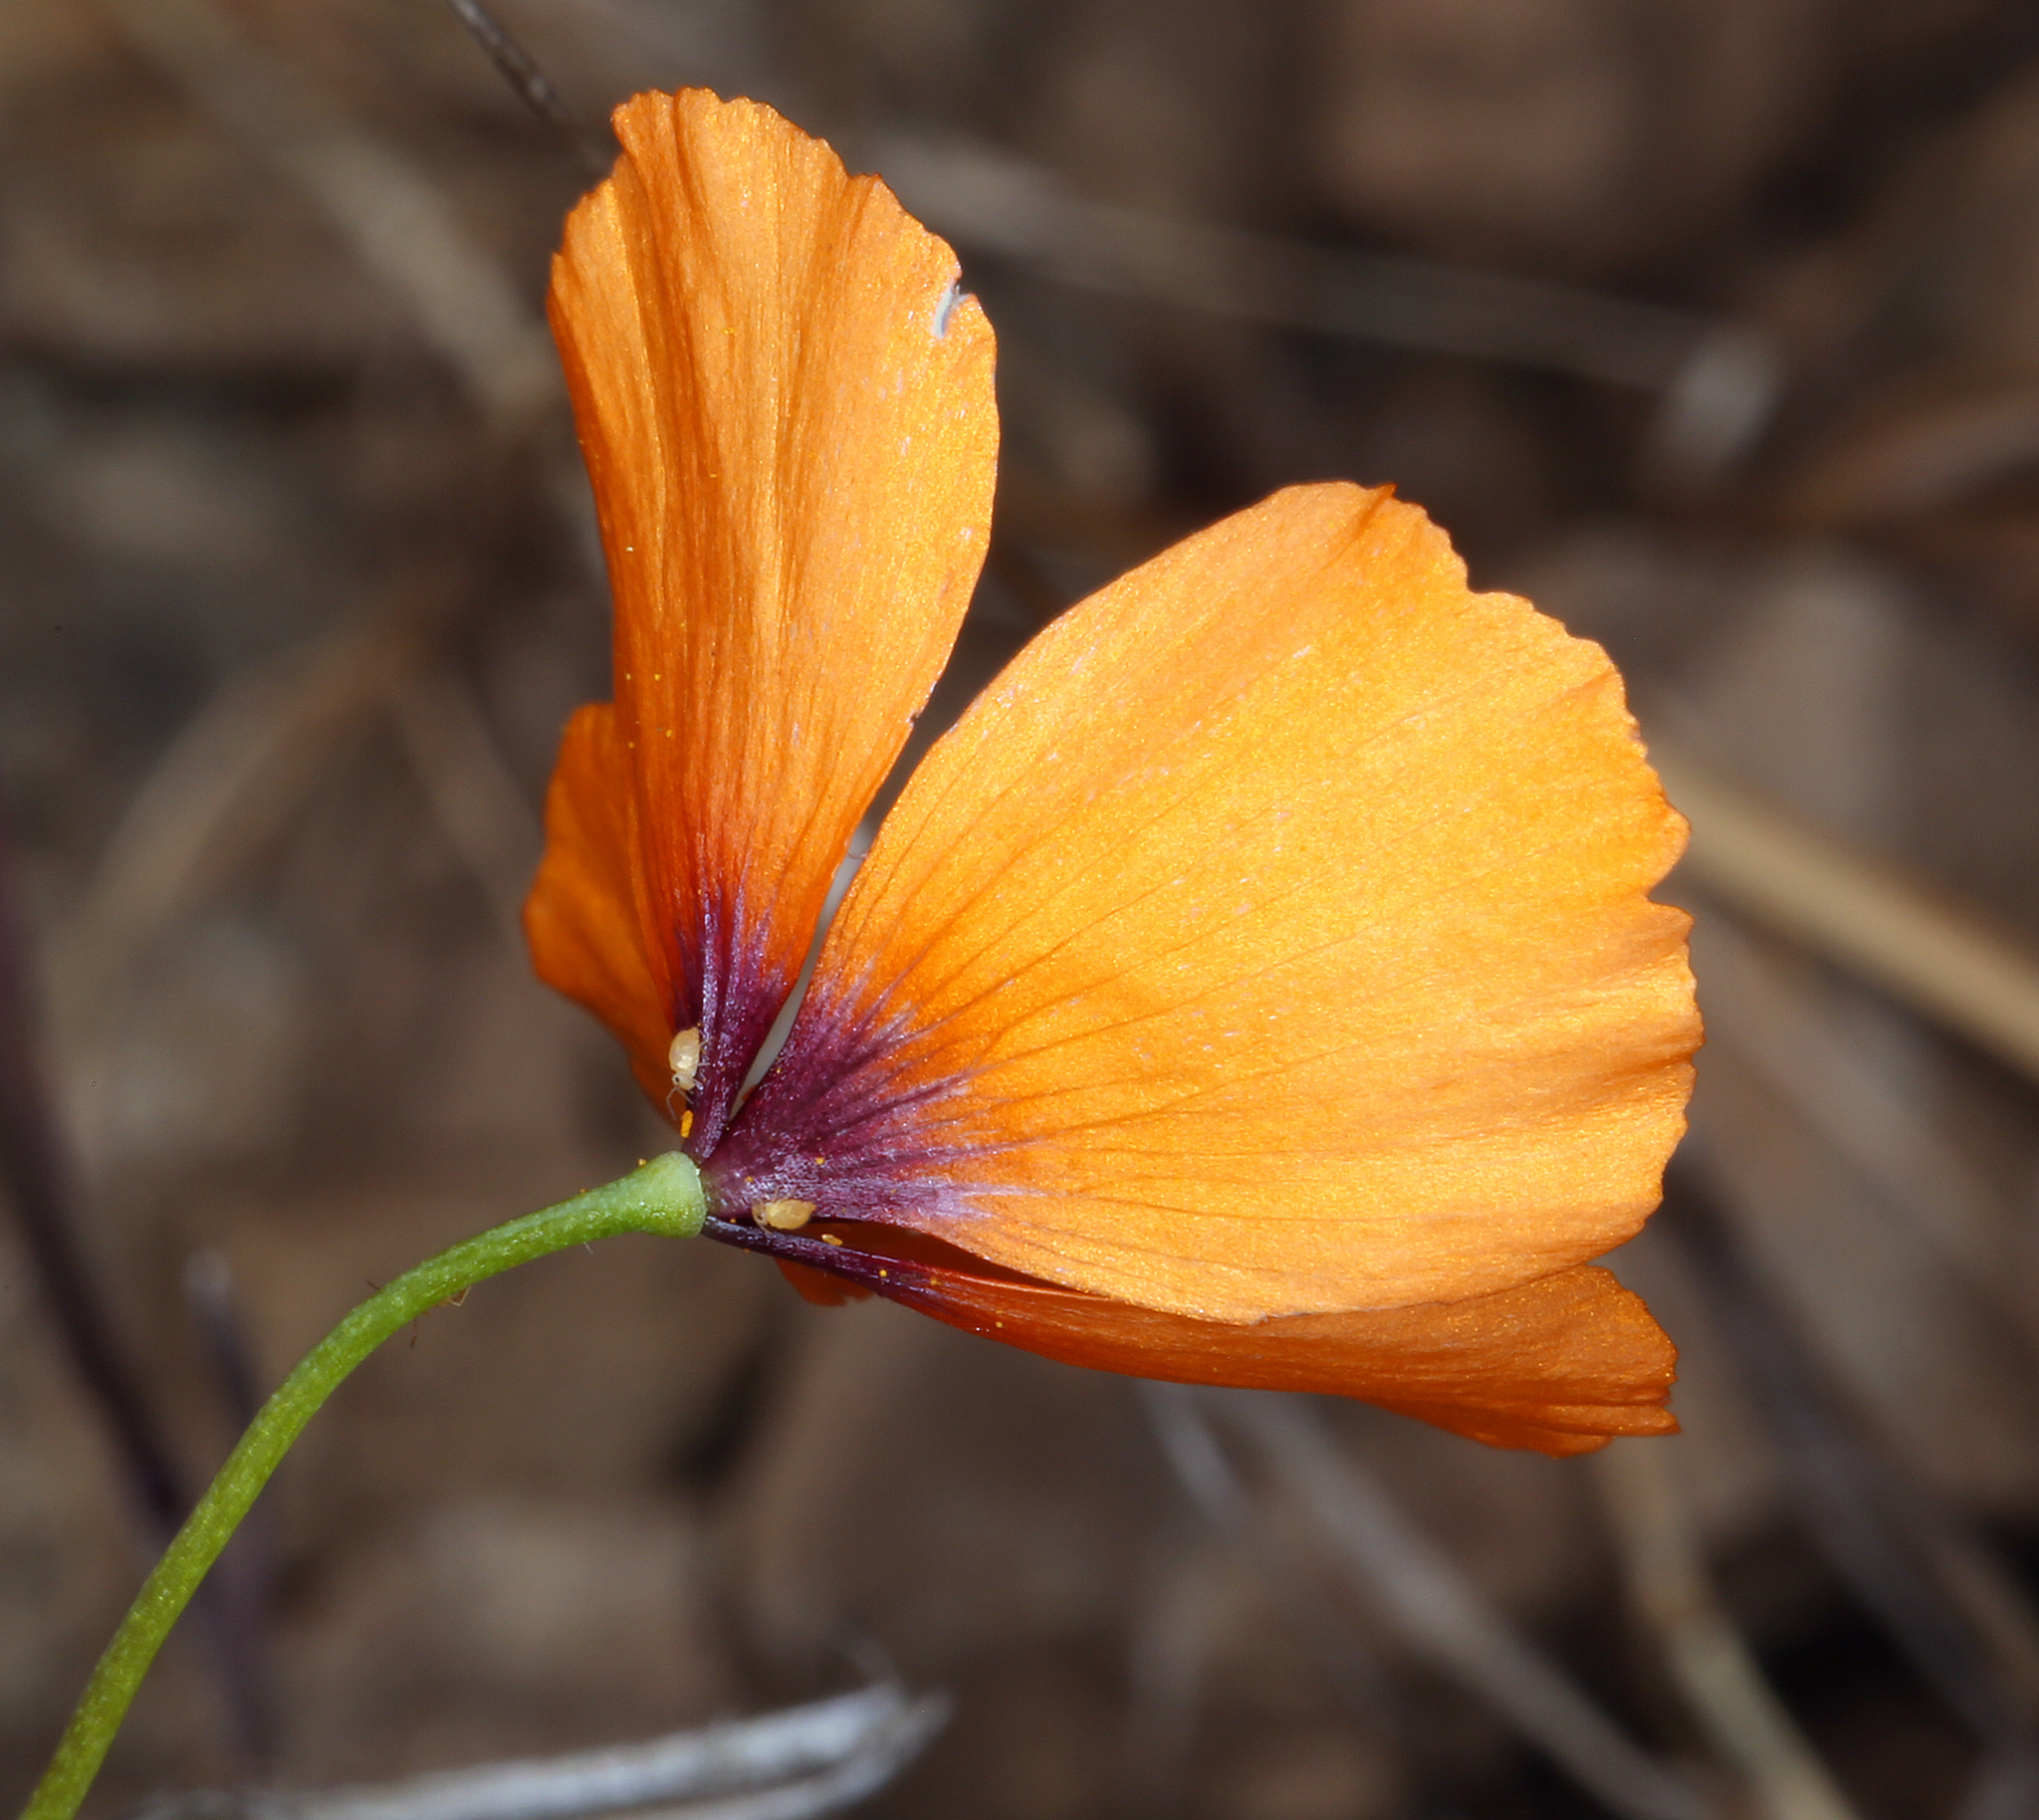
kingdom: Plantae
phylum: Tracheophyta
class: Magnoliopsida
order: Ranunculales
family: Papaveraceae
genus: Stylomecon
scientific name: Stylomecon heterophylla
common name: Flaming-poppy
